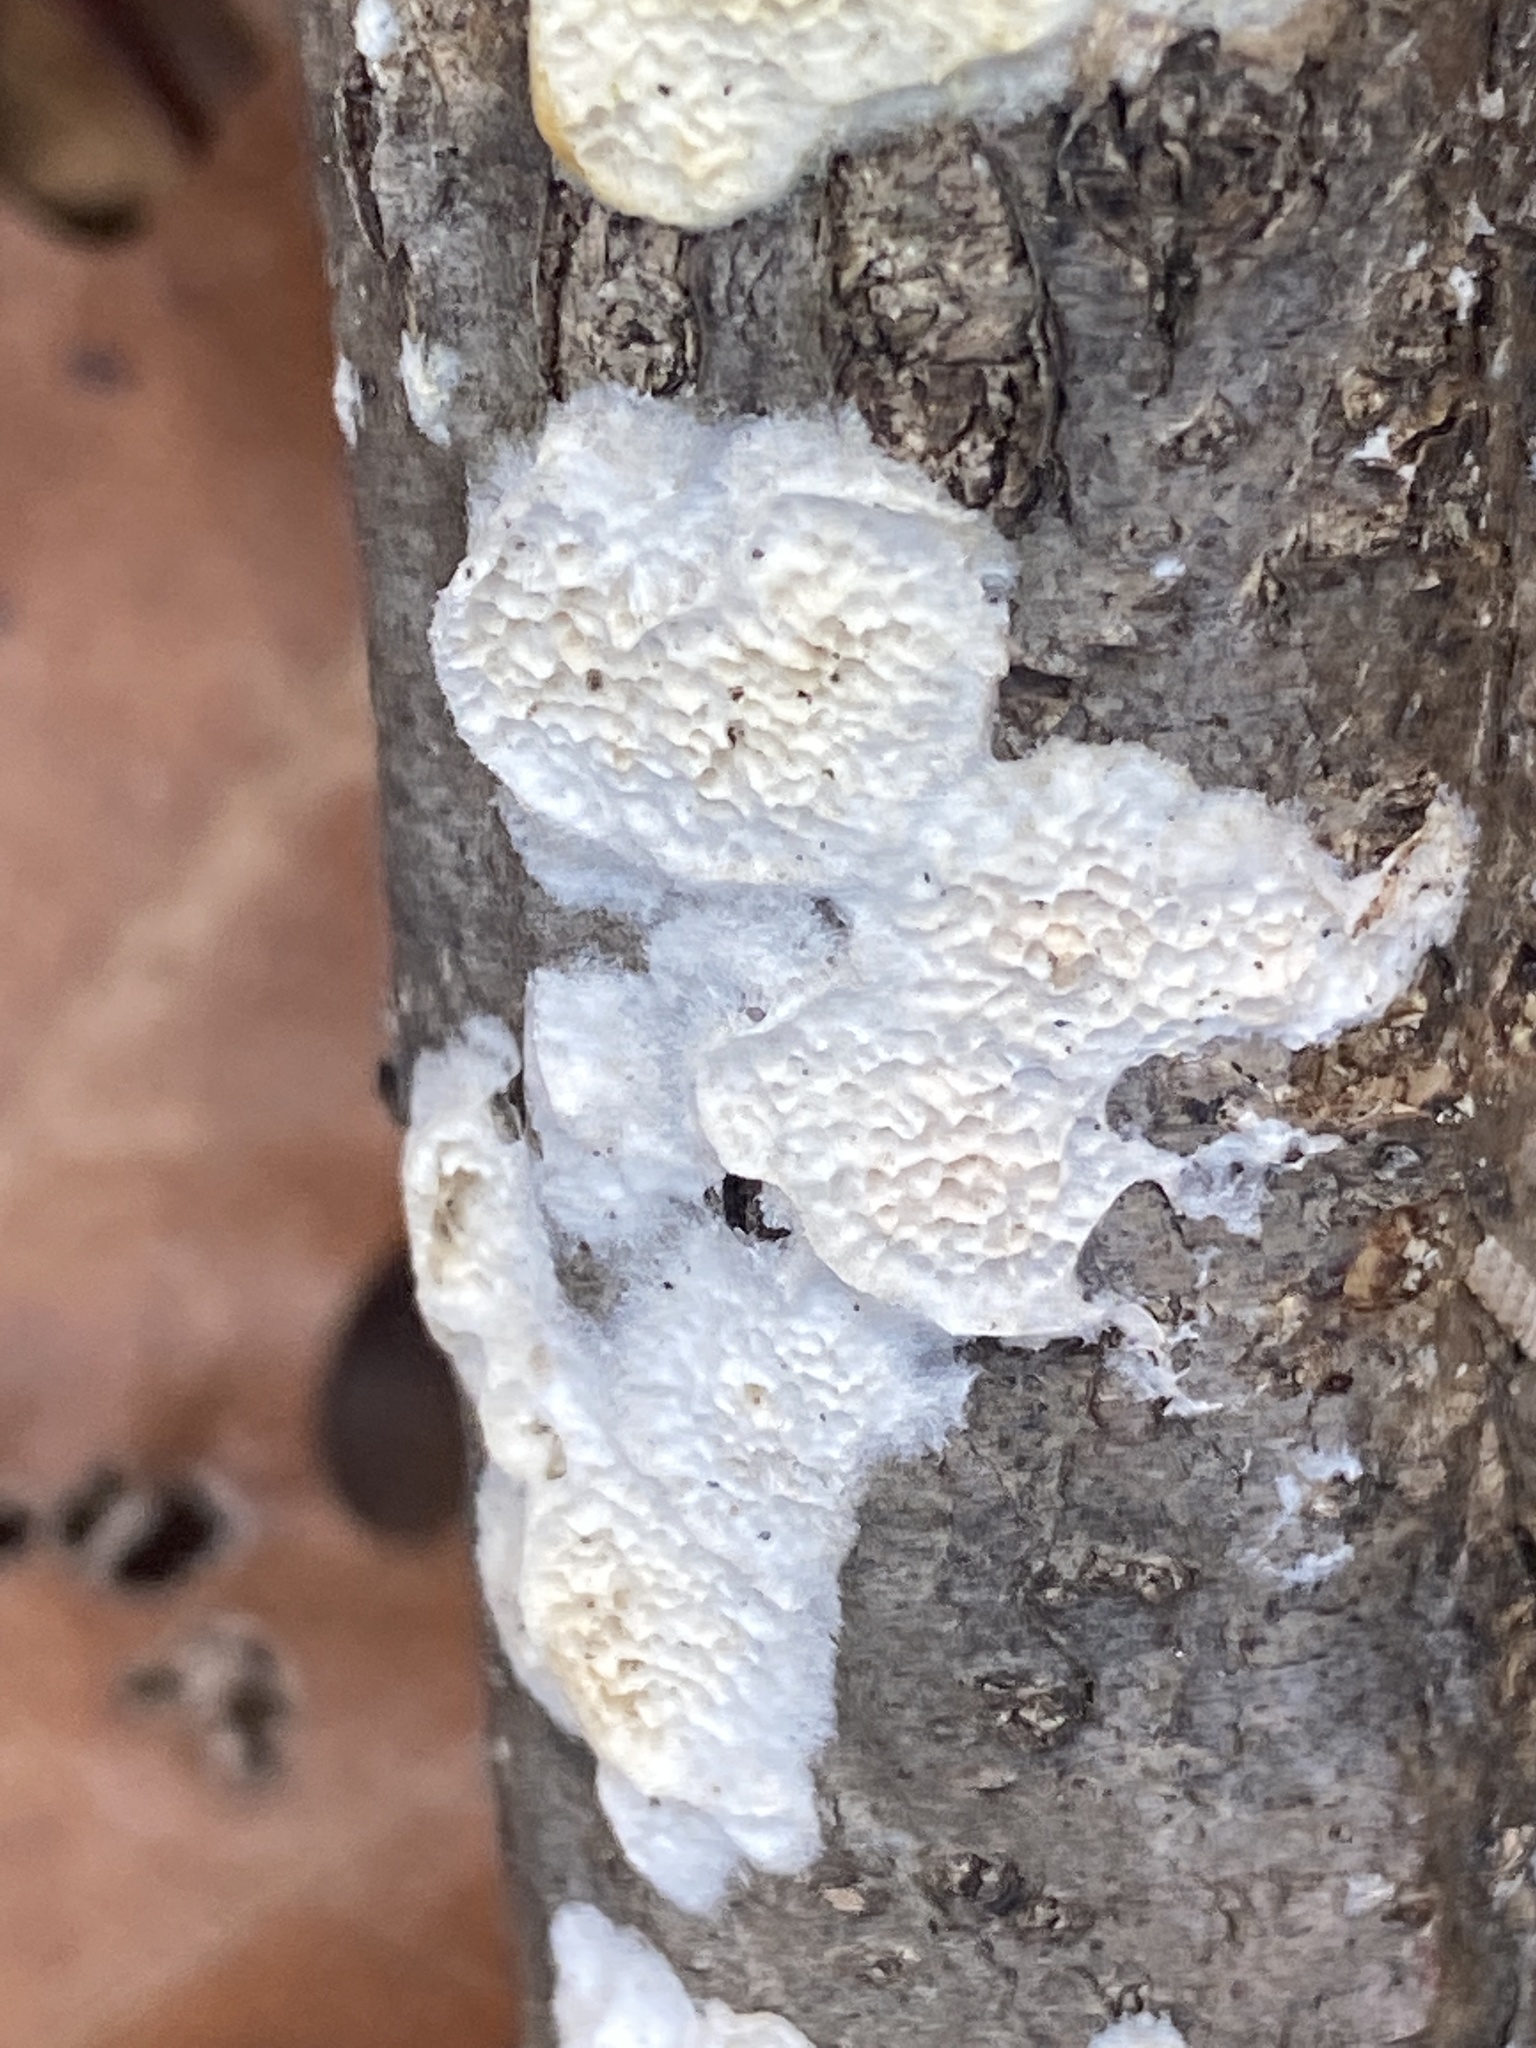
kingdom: Fungi
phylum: Basidiomycota
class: Agaricomycetes
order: Polyporales
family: Irpicaceae
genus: Irpex
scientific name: Irpex lacteus
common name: Milk-white toothed polypore
